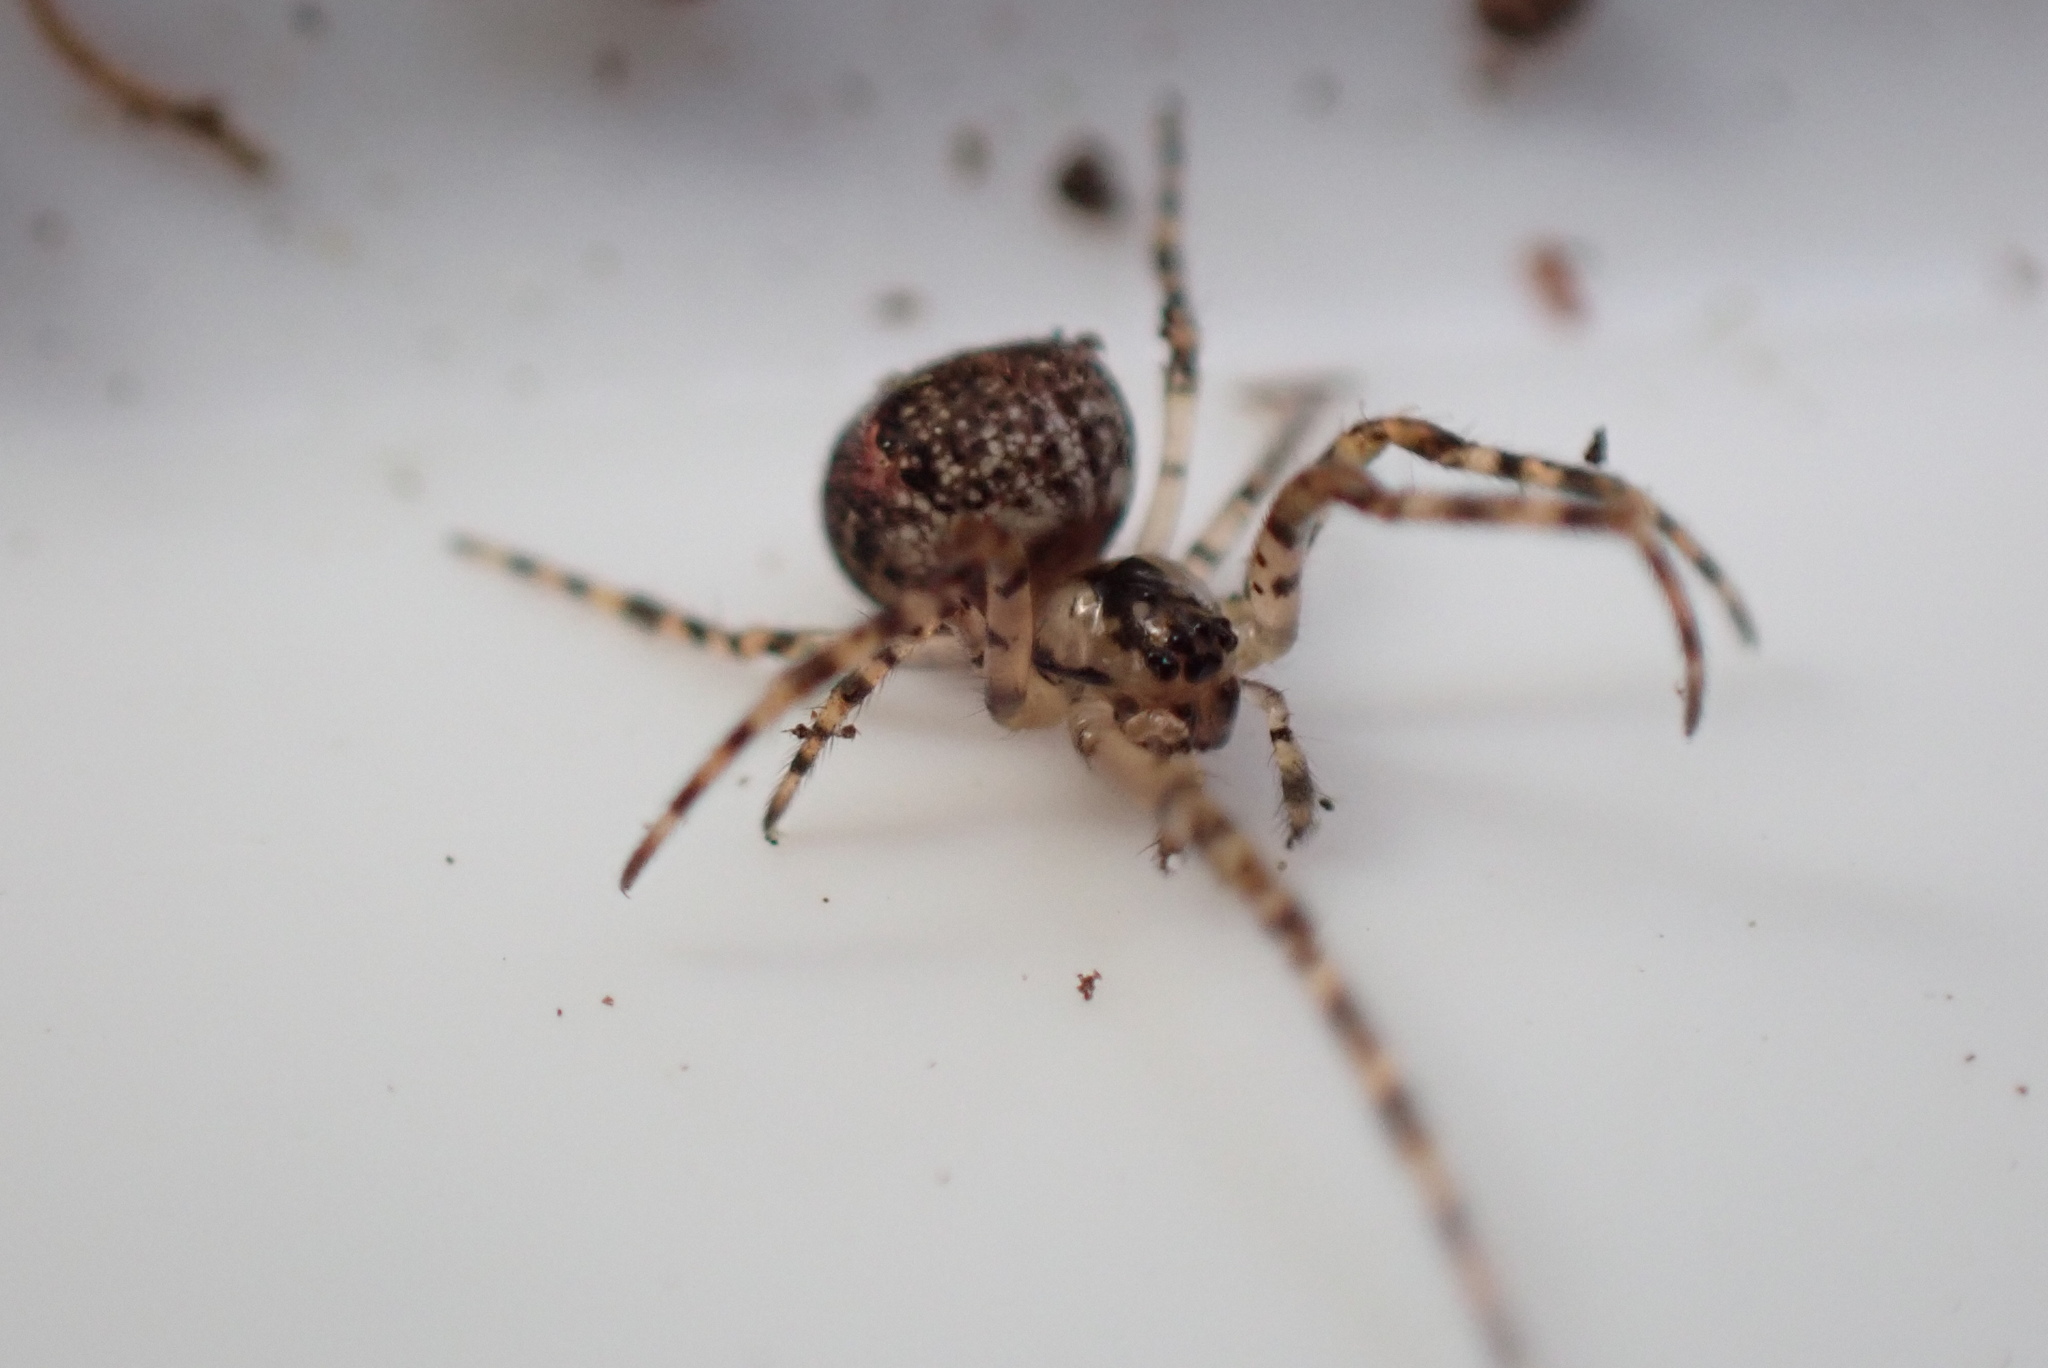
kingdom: Animalia
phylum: Arthropoda
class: Arachnida
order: Araneae
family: Tetragnathidae
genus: Metellina
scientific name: Metellina merianae
